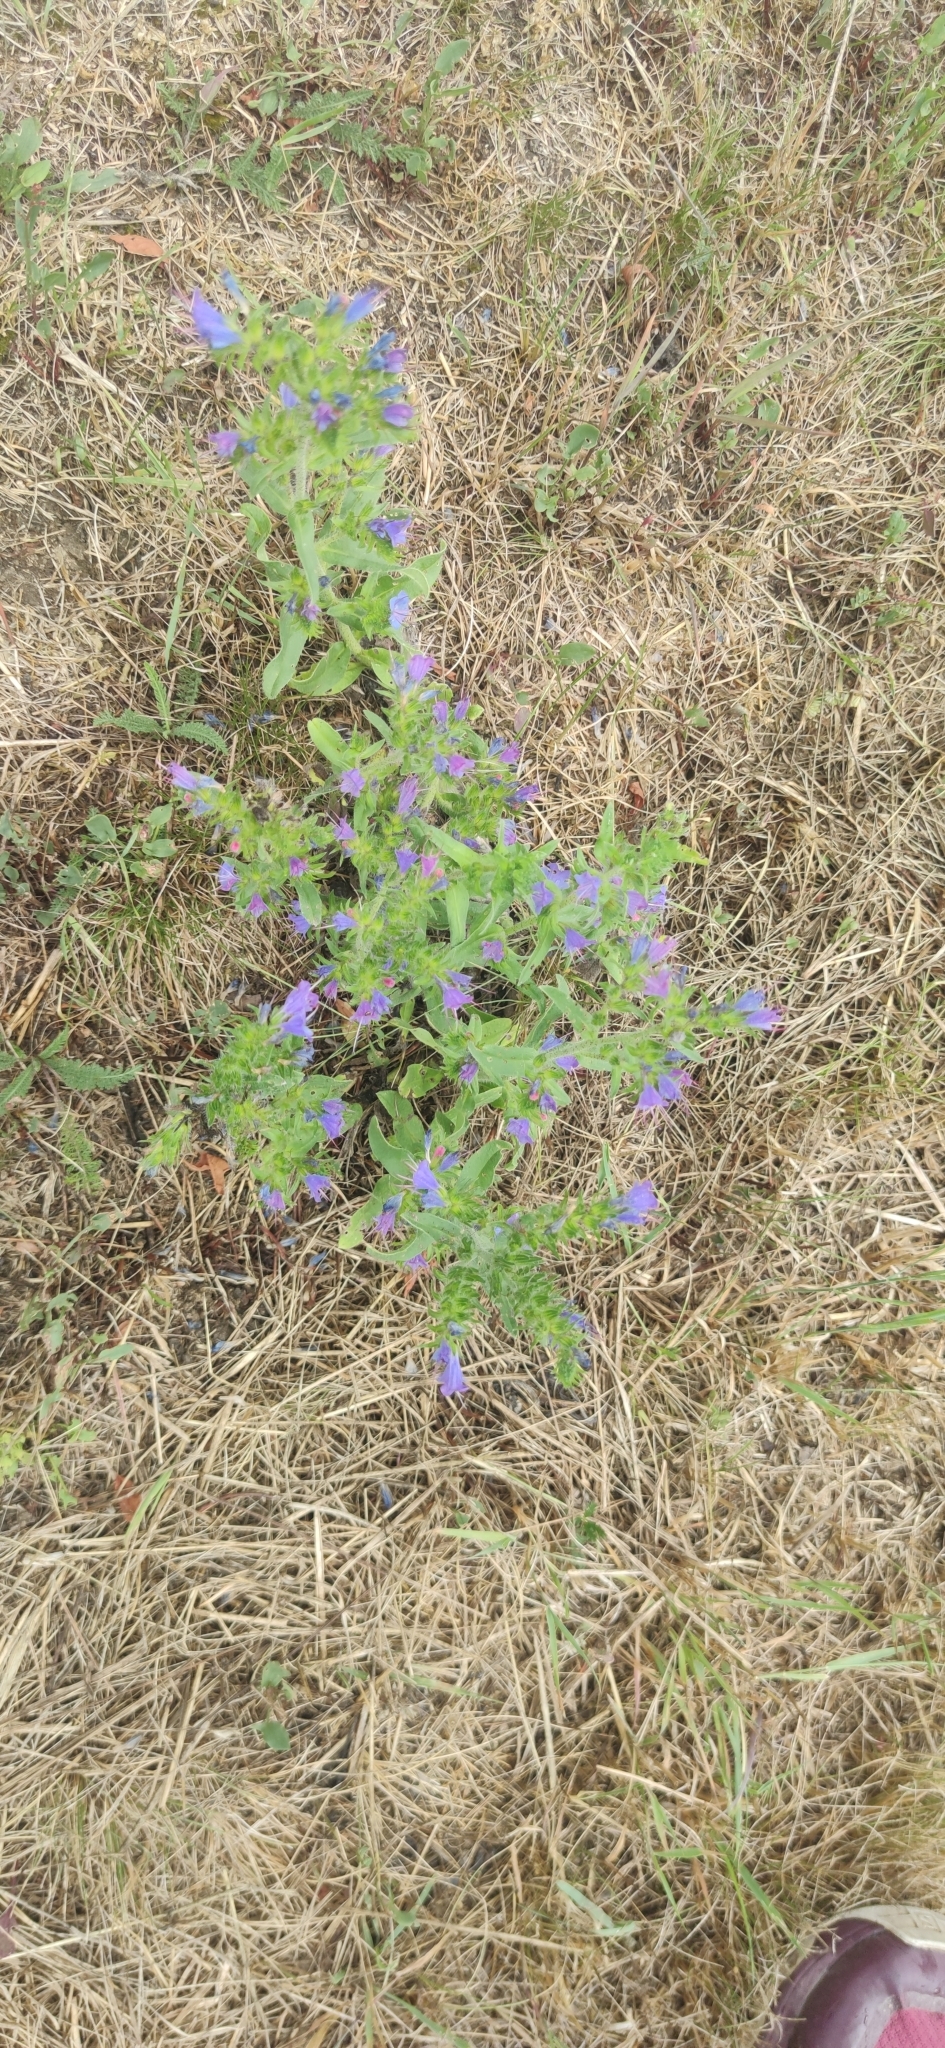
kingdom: Plantae
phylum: Tracheophyta
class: Magnoliopsida
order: Boraginales
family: Boraginaceae
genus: Echium
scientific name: Echium vulgare
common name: Common viper's bugloss
